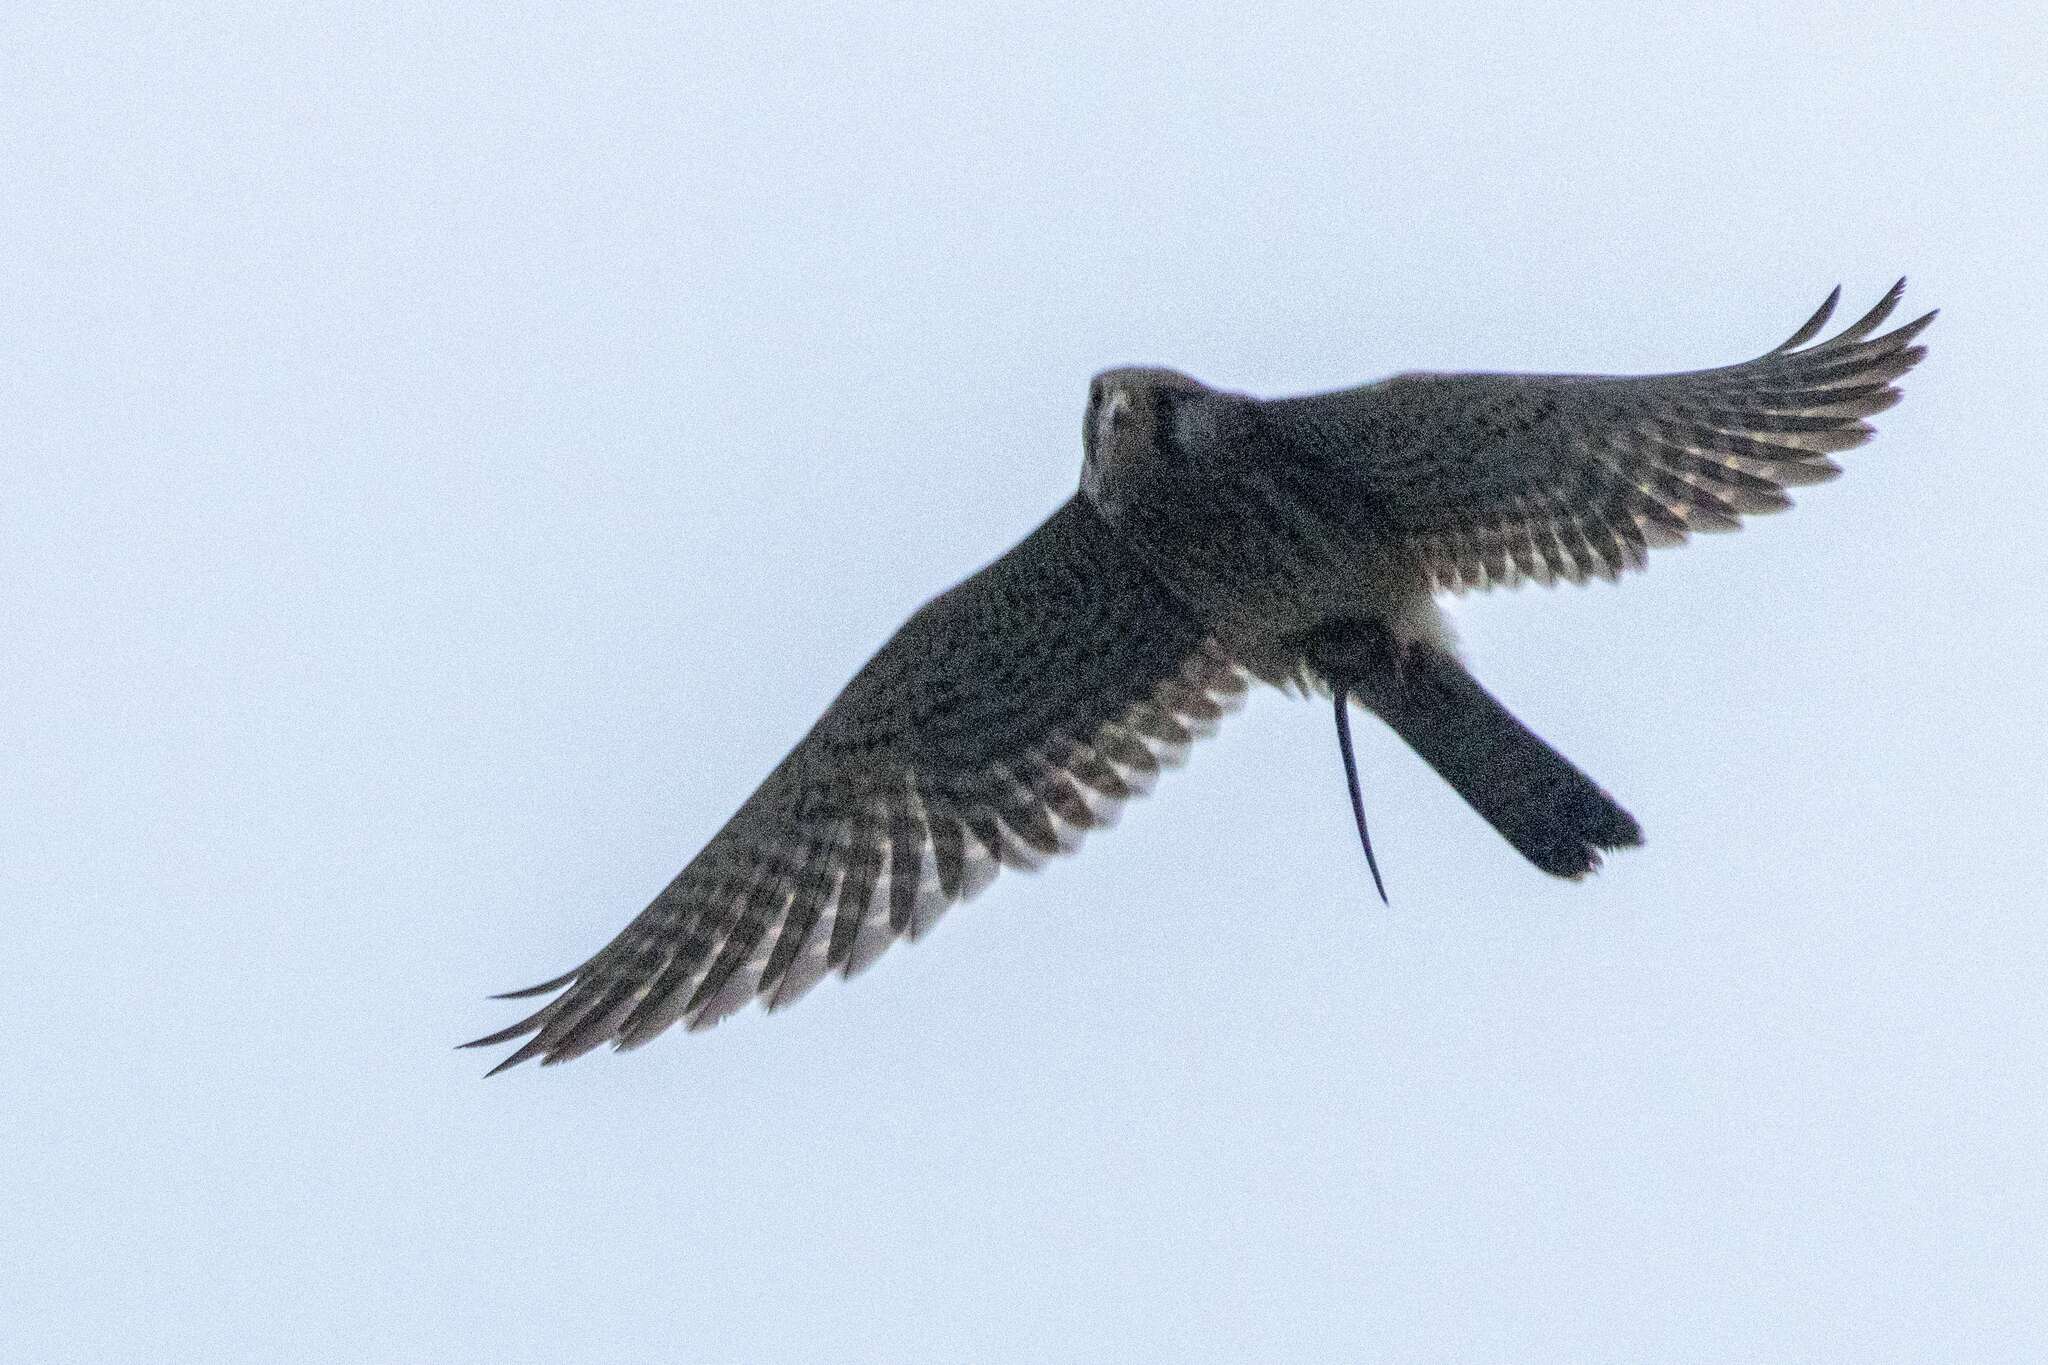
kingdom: Animalia
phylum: Chordata
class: Aves
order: Falconiformes
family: Falconidae
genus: Falco
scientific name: Falco tinnunculus
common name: Common kestrel
